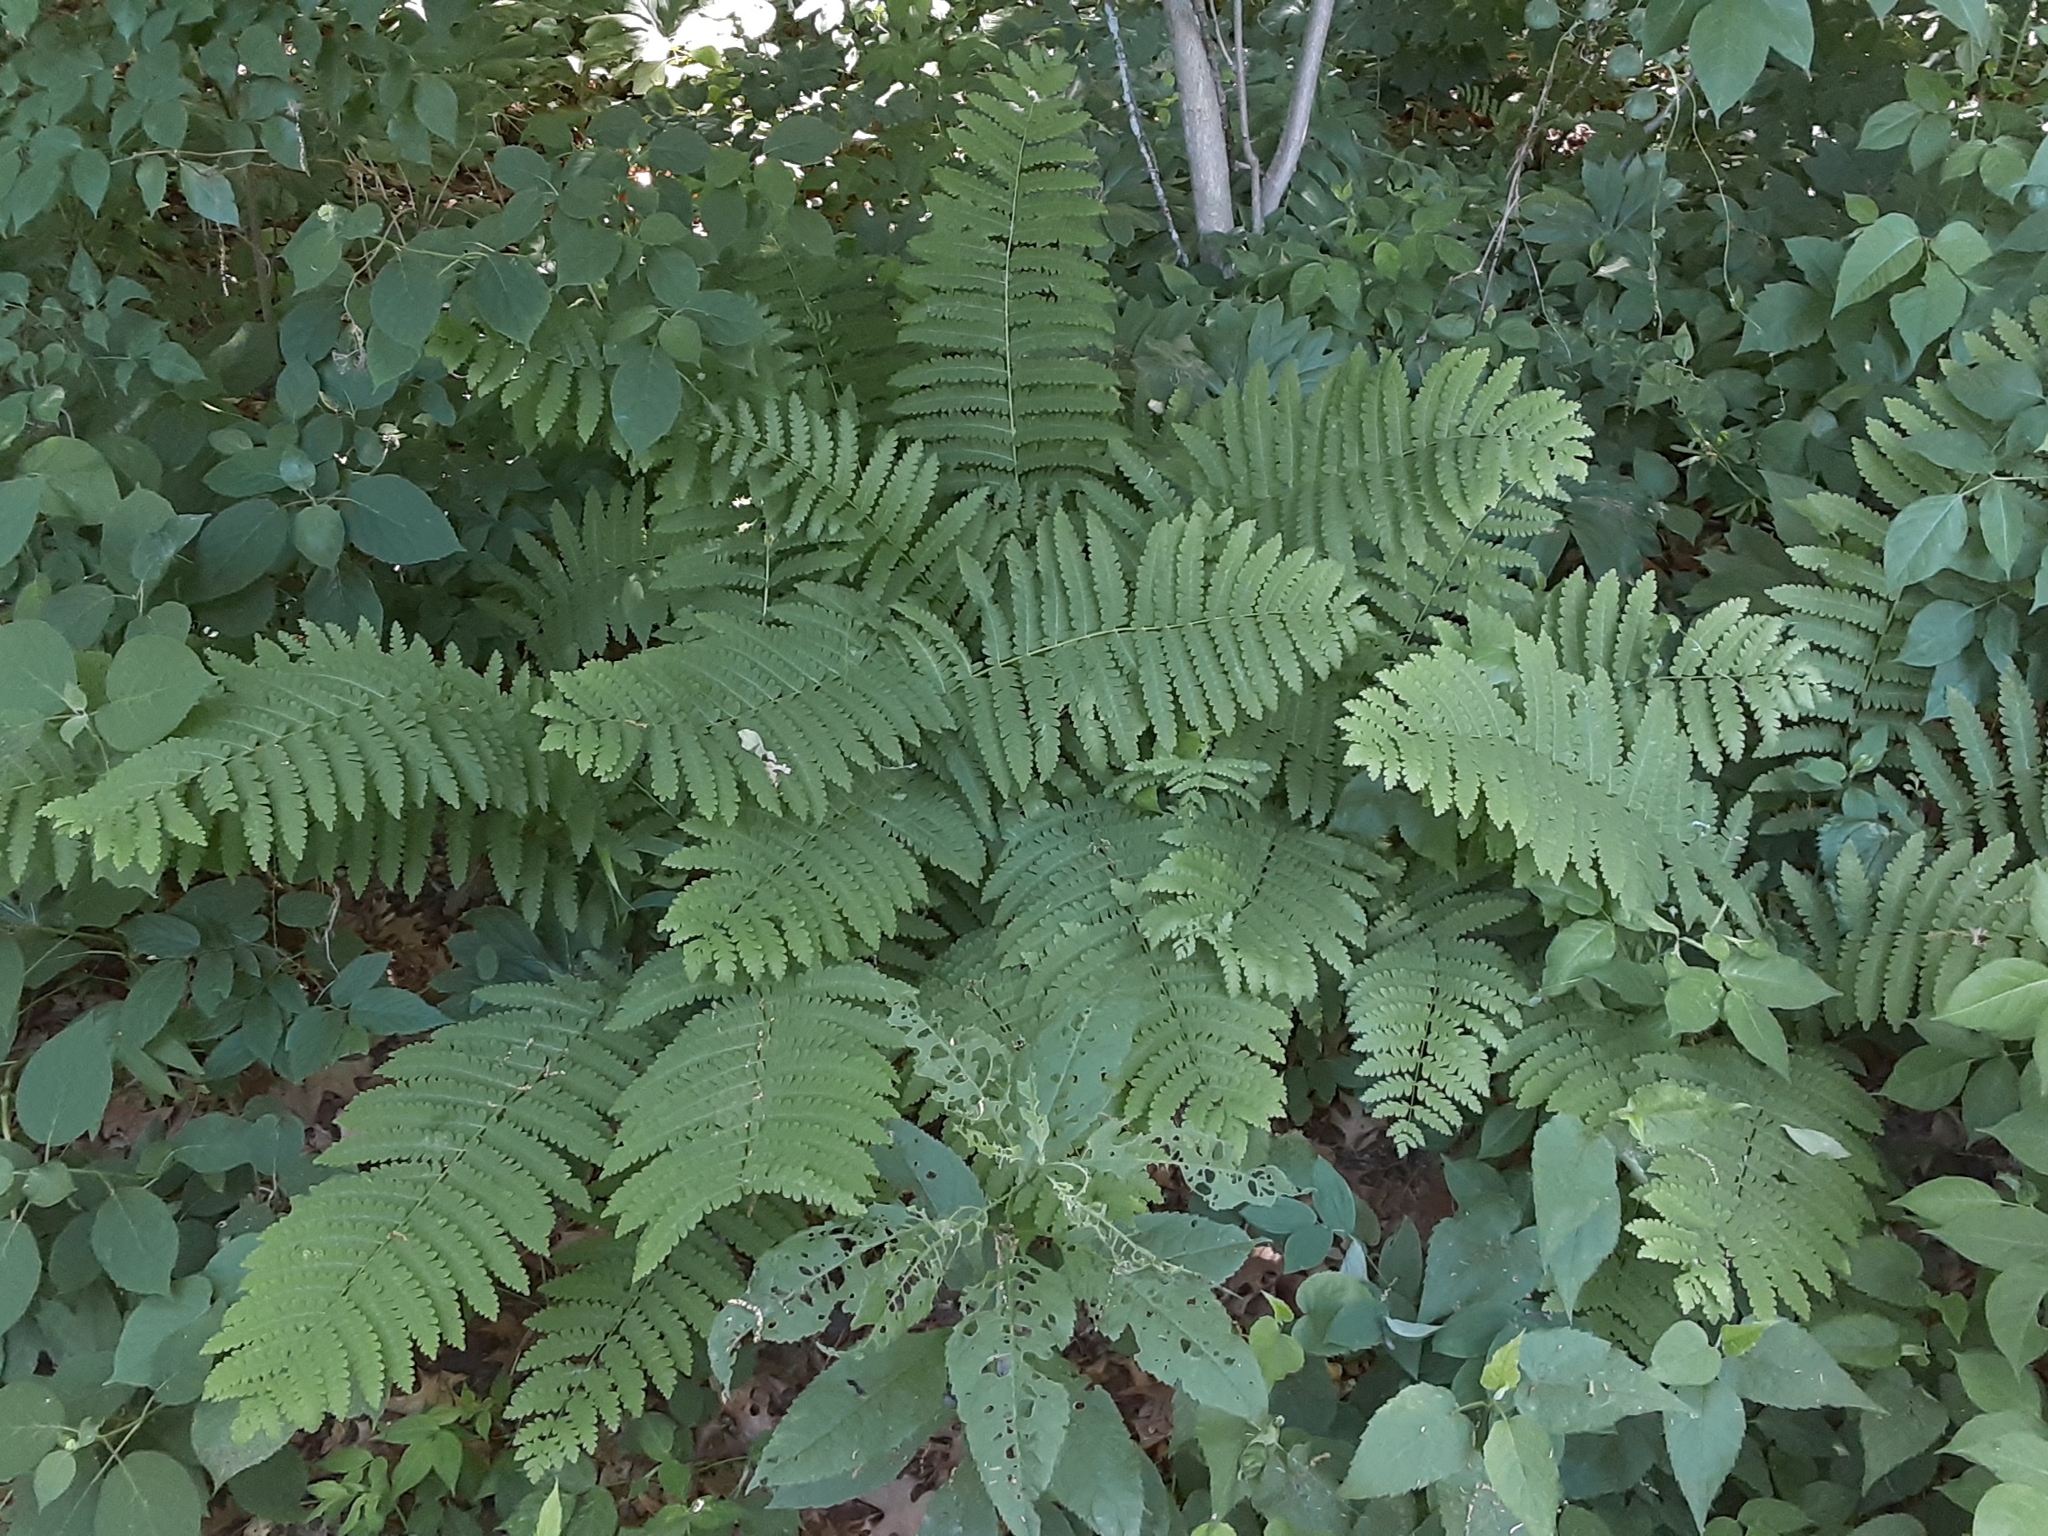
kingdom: Plantae
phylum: Tracheophyta
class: Polypodiopsida
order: Osmundales
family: Osmundaceae
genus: Claytosmunda
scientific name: Claytosmunda claytoniana
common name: Clayton's fern
